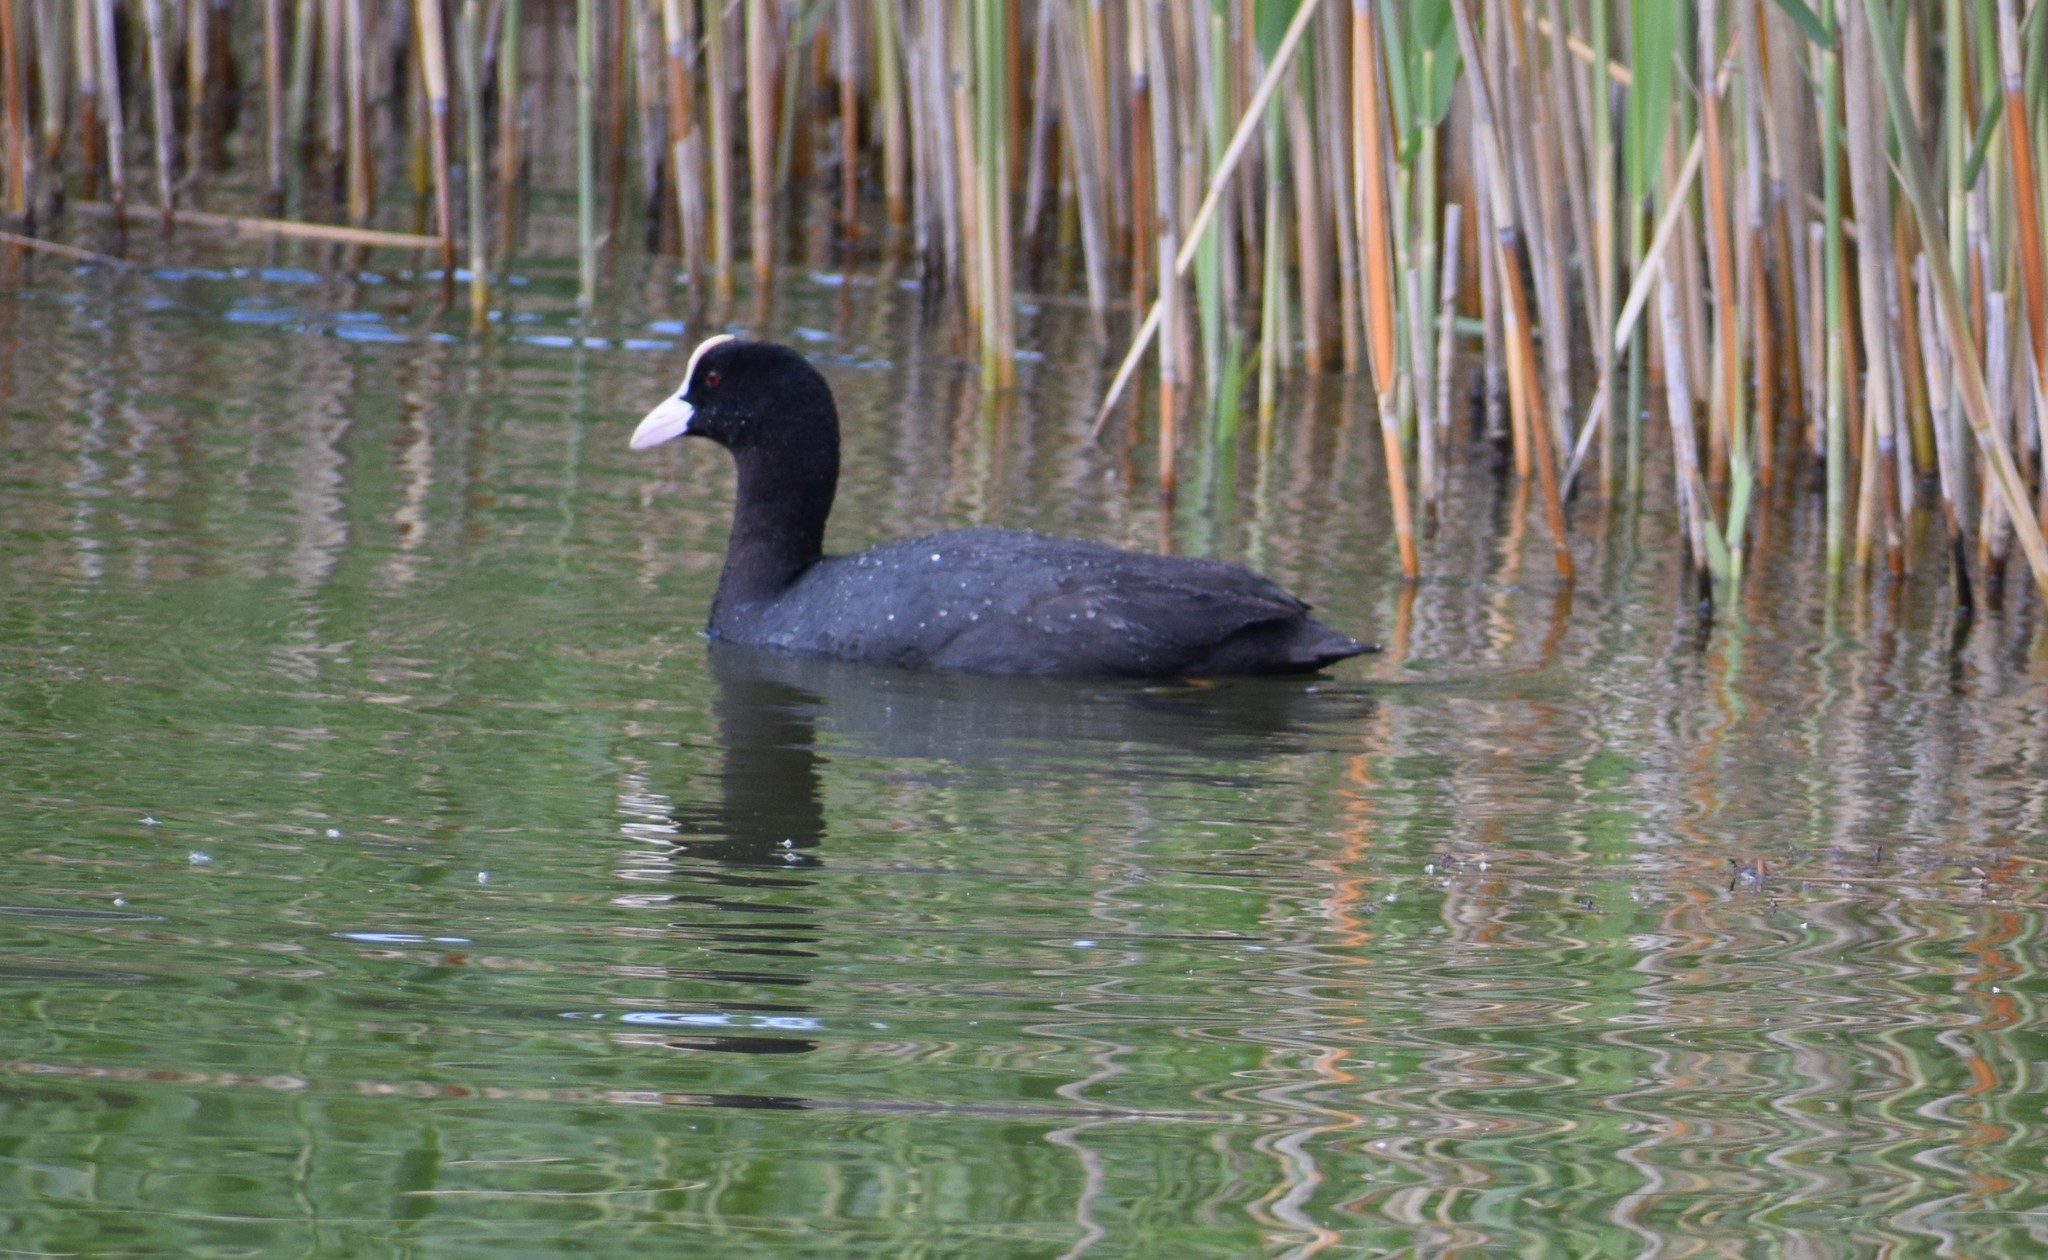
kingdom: Animalia
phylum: Chordata
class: Aves
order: Gruiformes
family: Rallidae
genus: Fulica
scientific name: Fulica atra
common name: Eurasian coot
